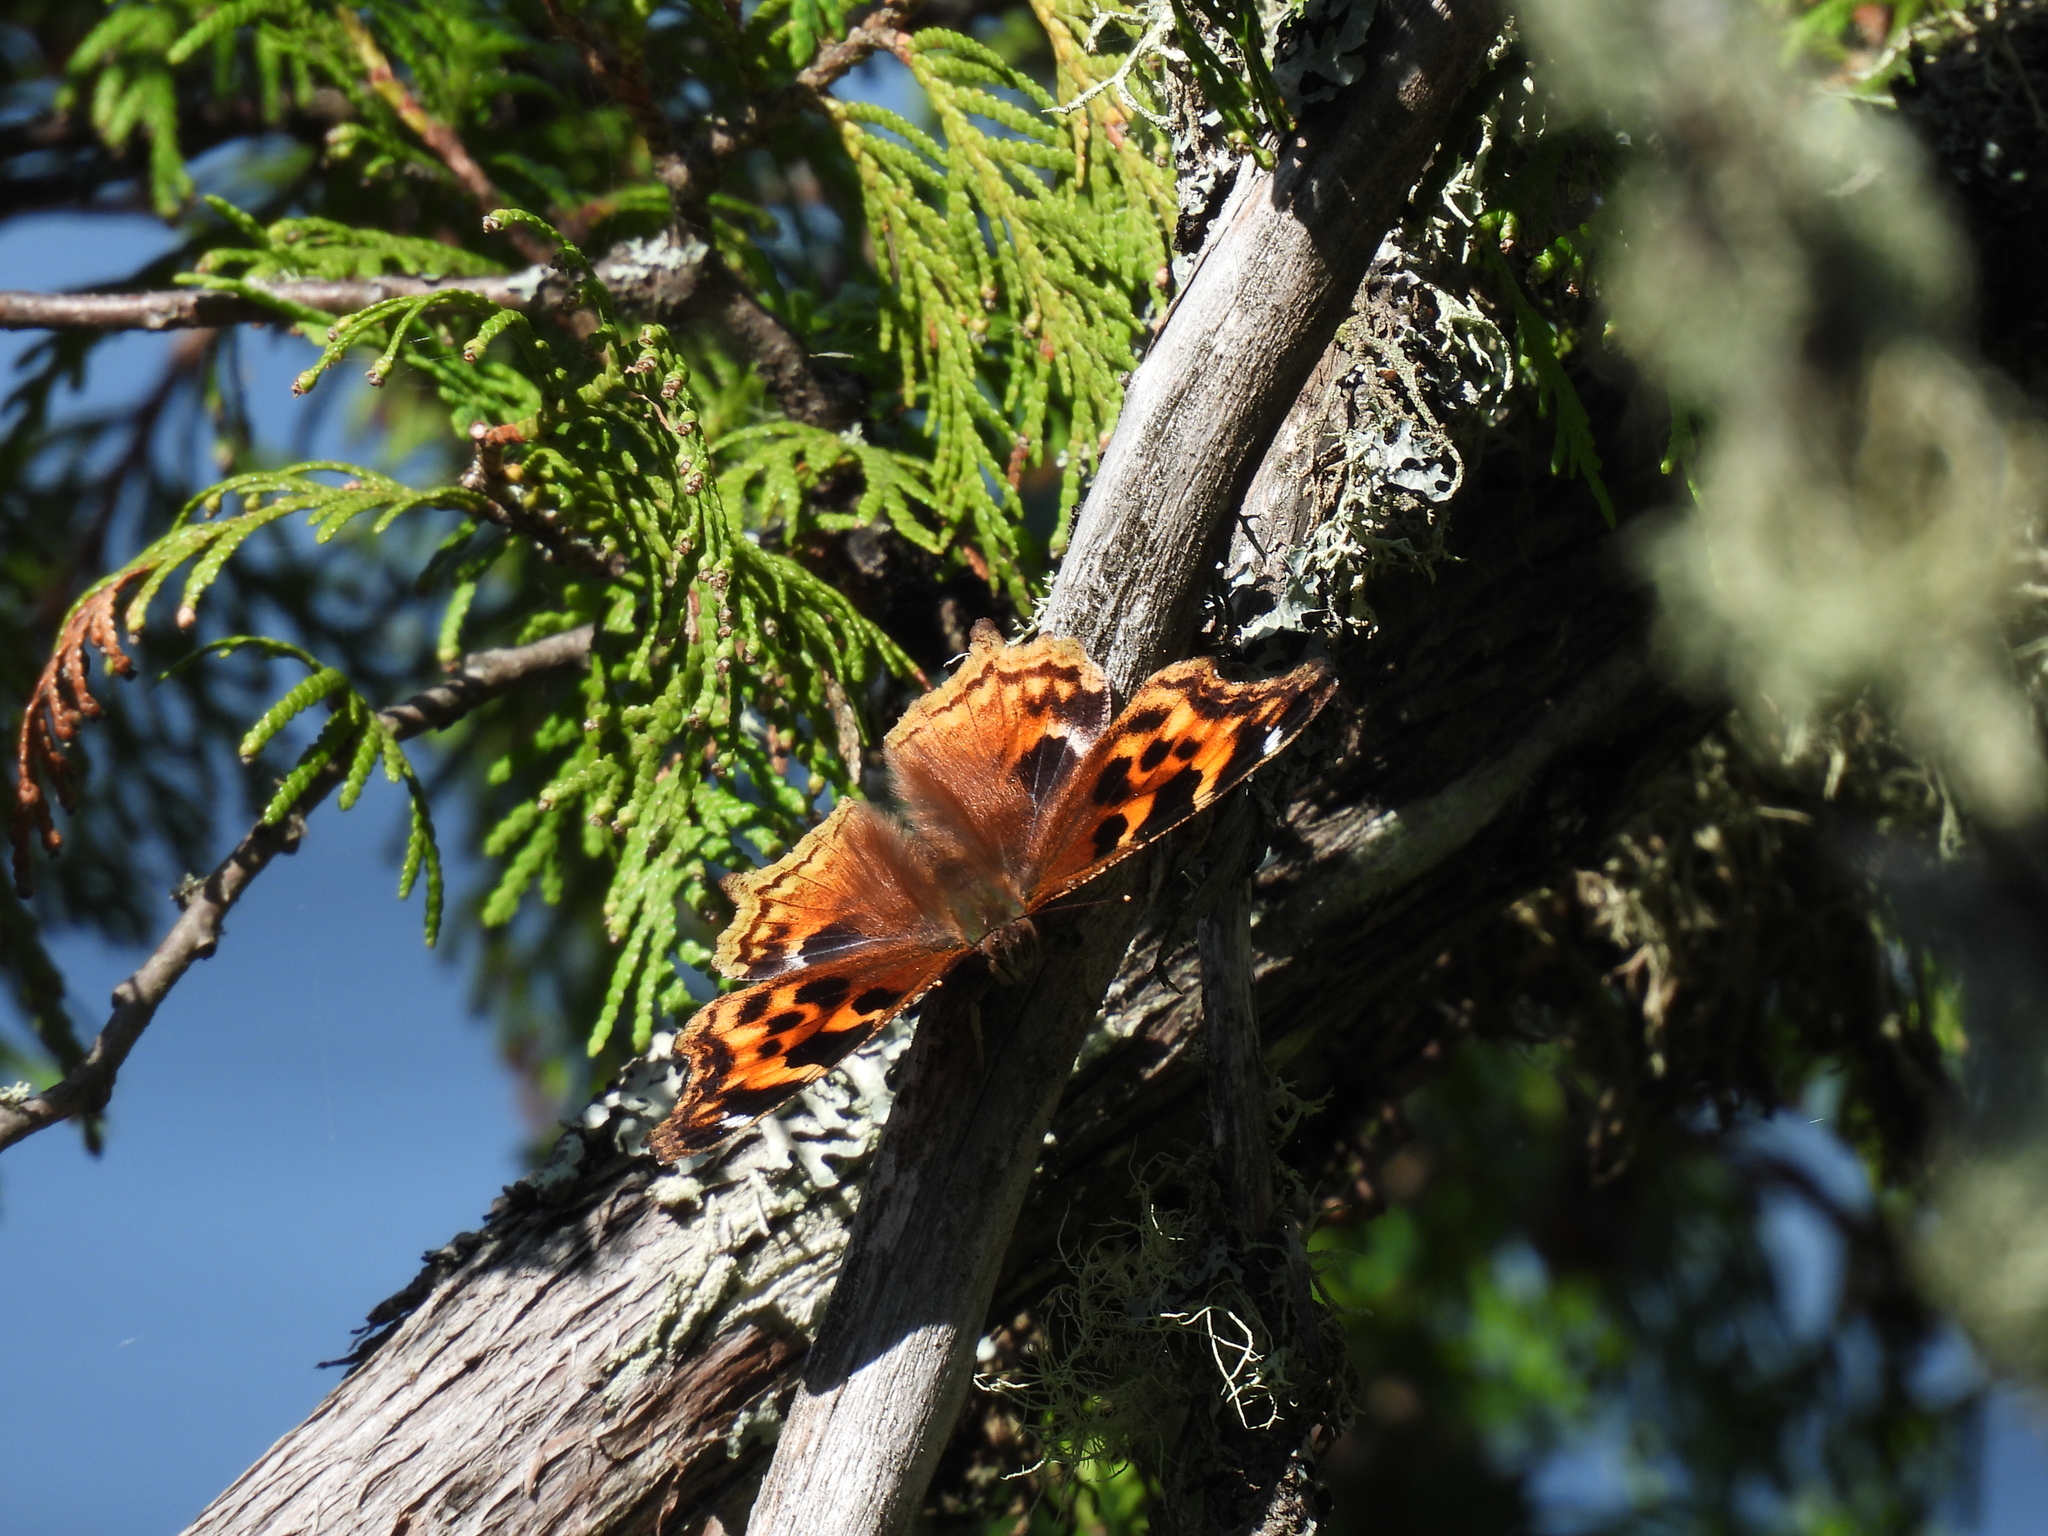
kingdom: Animalia
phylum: Arthropoda
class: Insecta
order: Lepidoptera
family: Nymphalidae
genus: Polygonia
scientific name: Polygonia vaualbum
